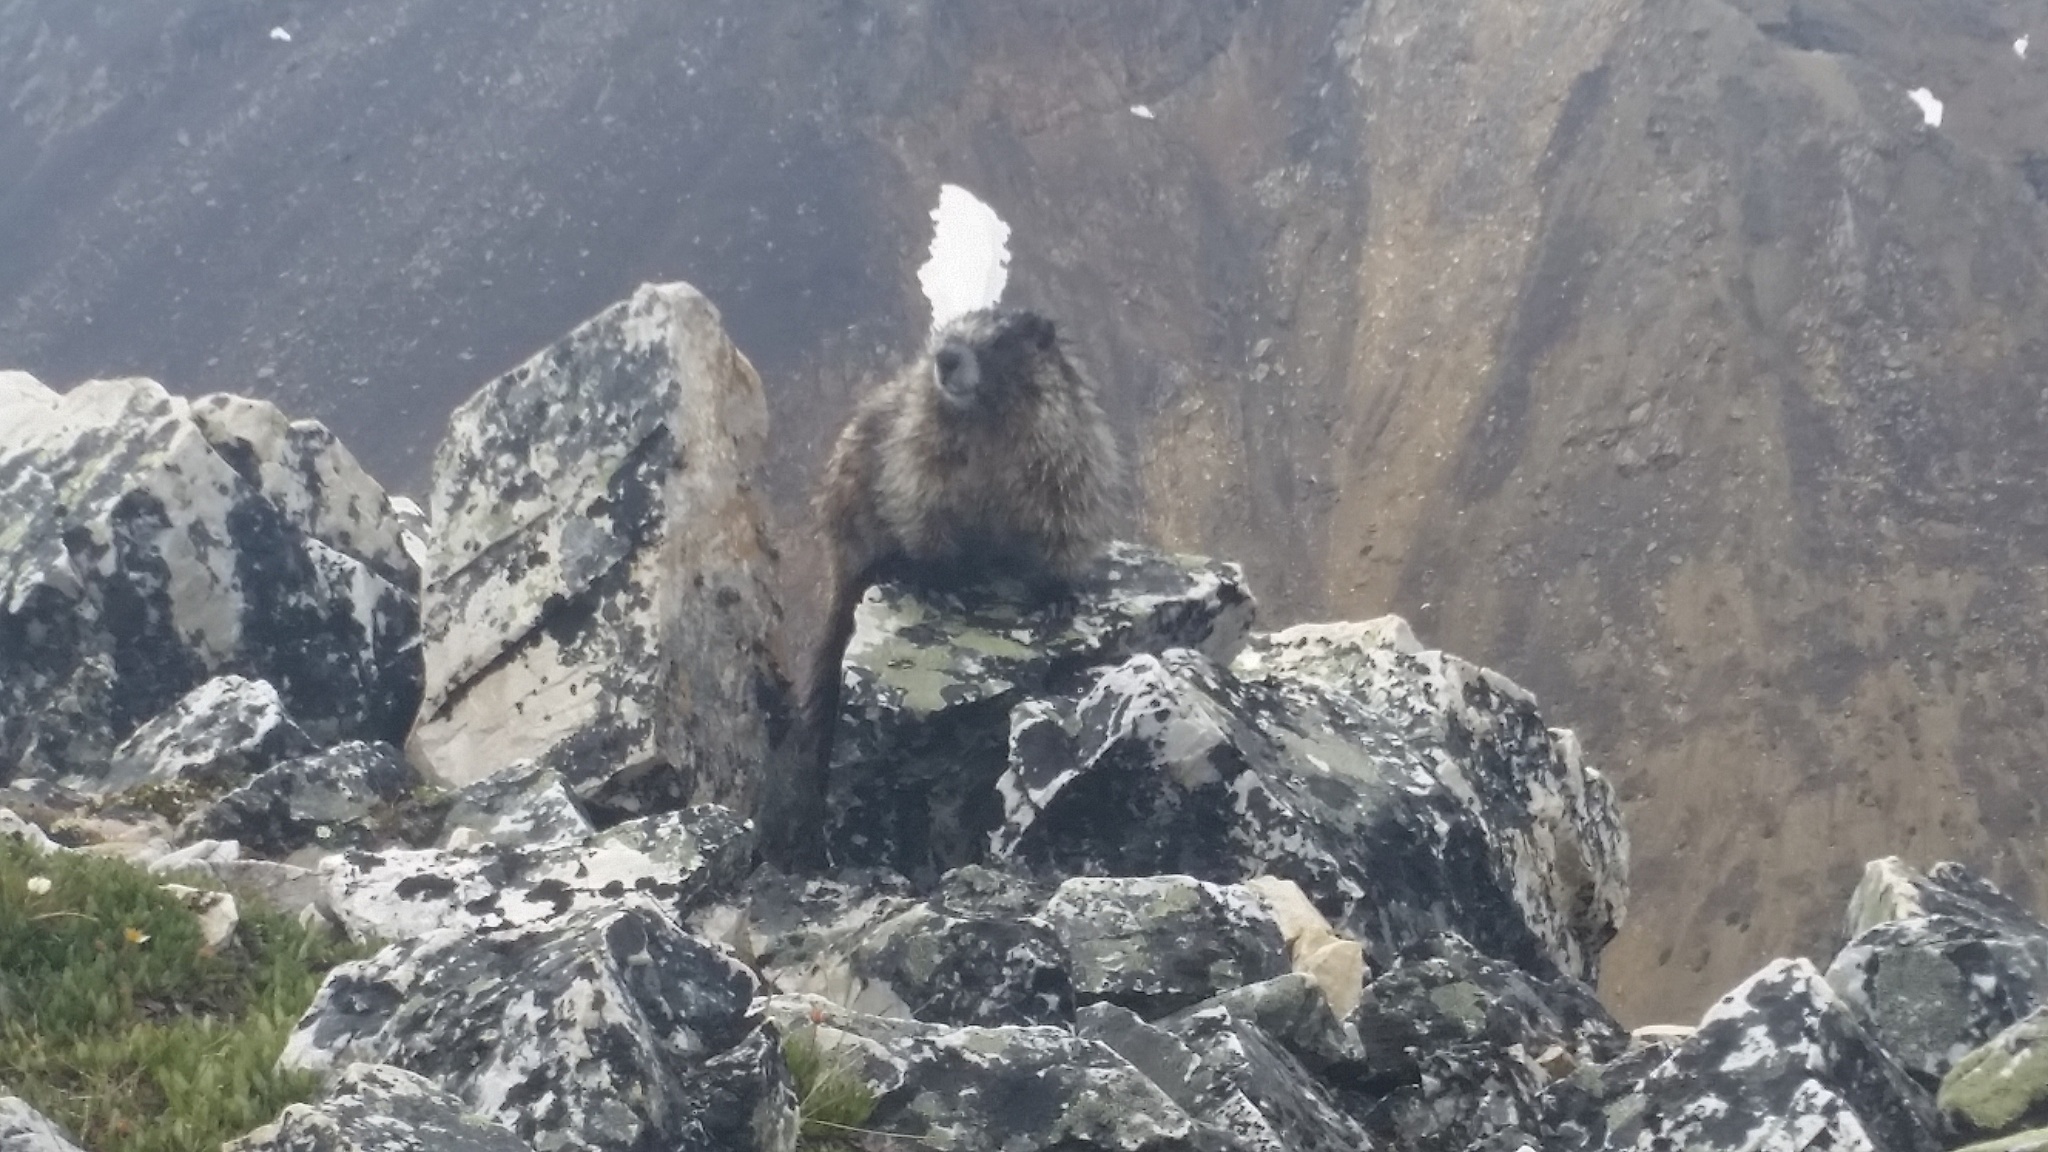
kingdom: Animalia
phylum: Chordata
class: Mammalia
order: Rodentia
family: Sciuridae
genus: Marmota
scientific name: Marmota caligata
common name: Hoary marmot
